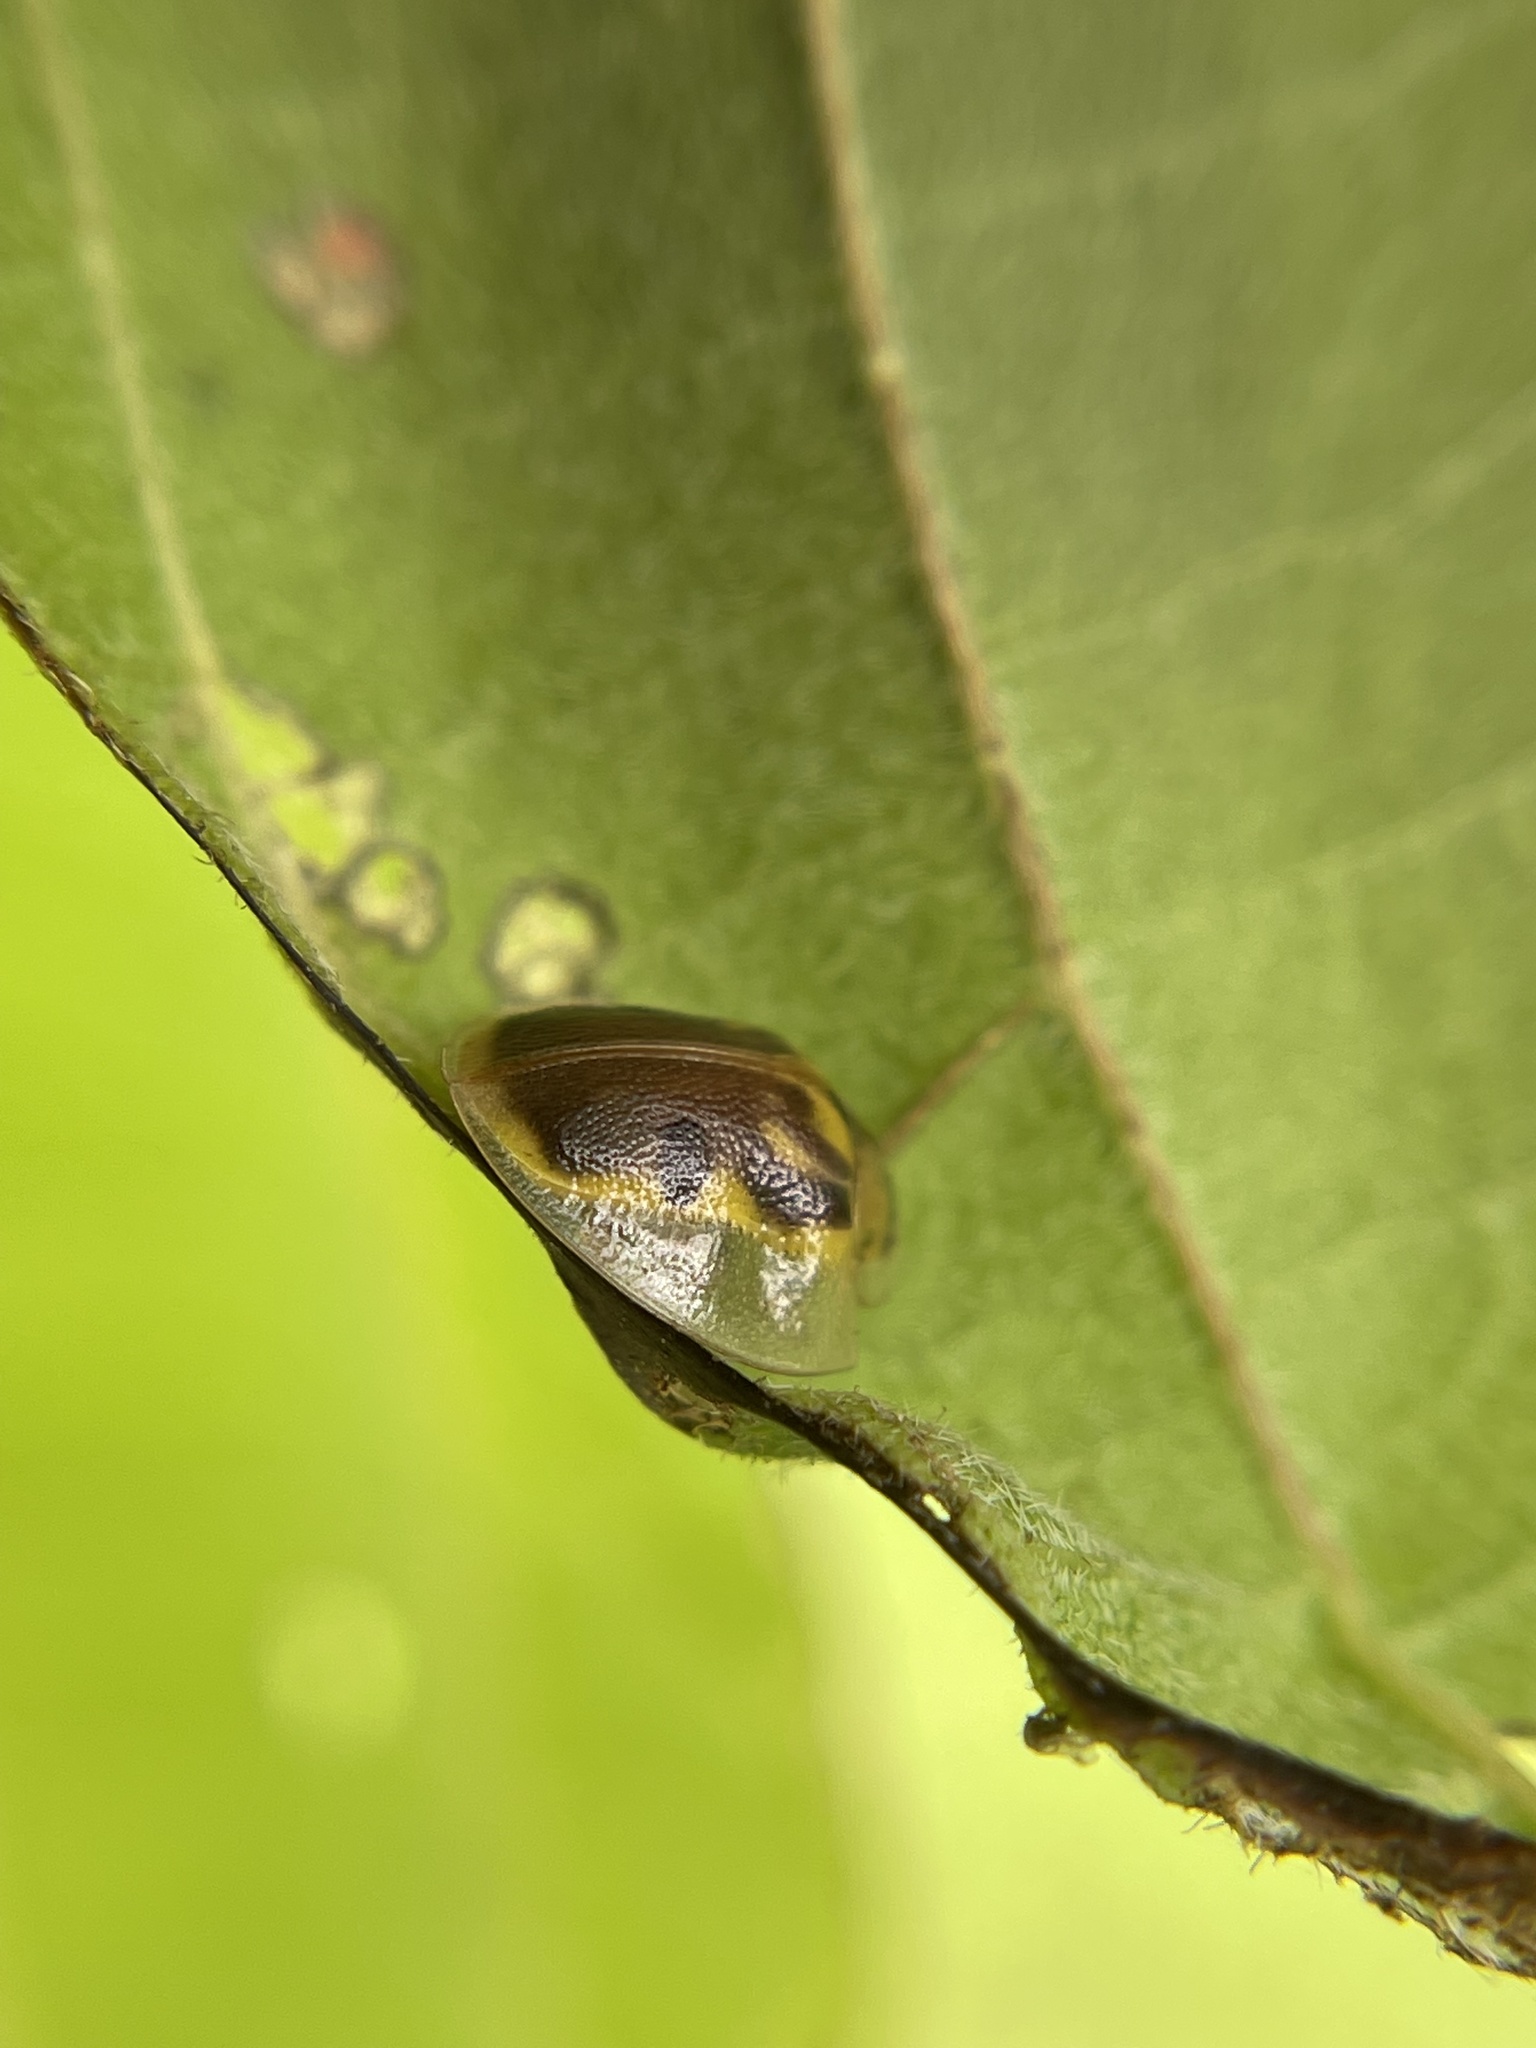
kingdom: Animalia
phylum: Arthropoda
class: Insecta
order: Coleoptera
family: Chrysomelidae
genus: Eurypepla
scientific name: Eurypepla calochroma
